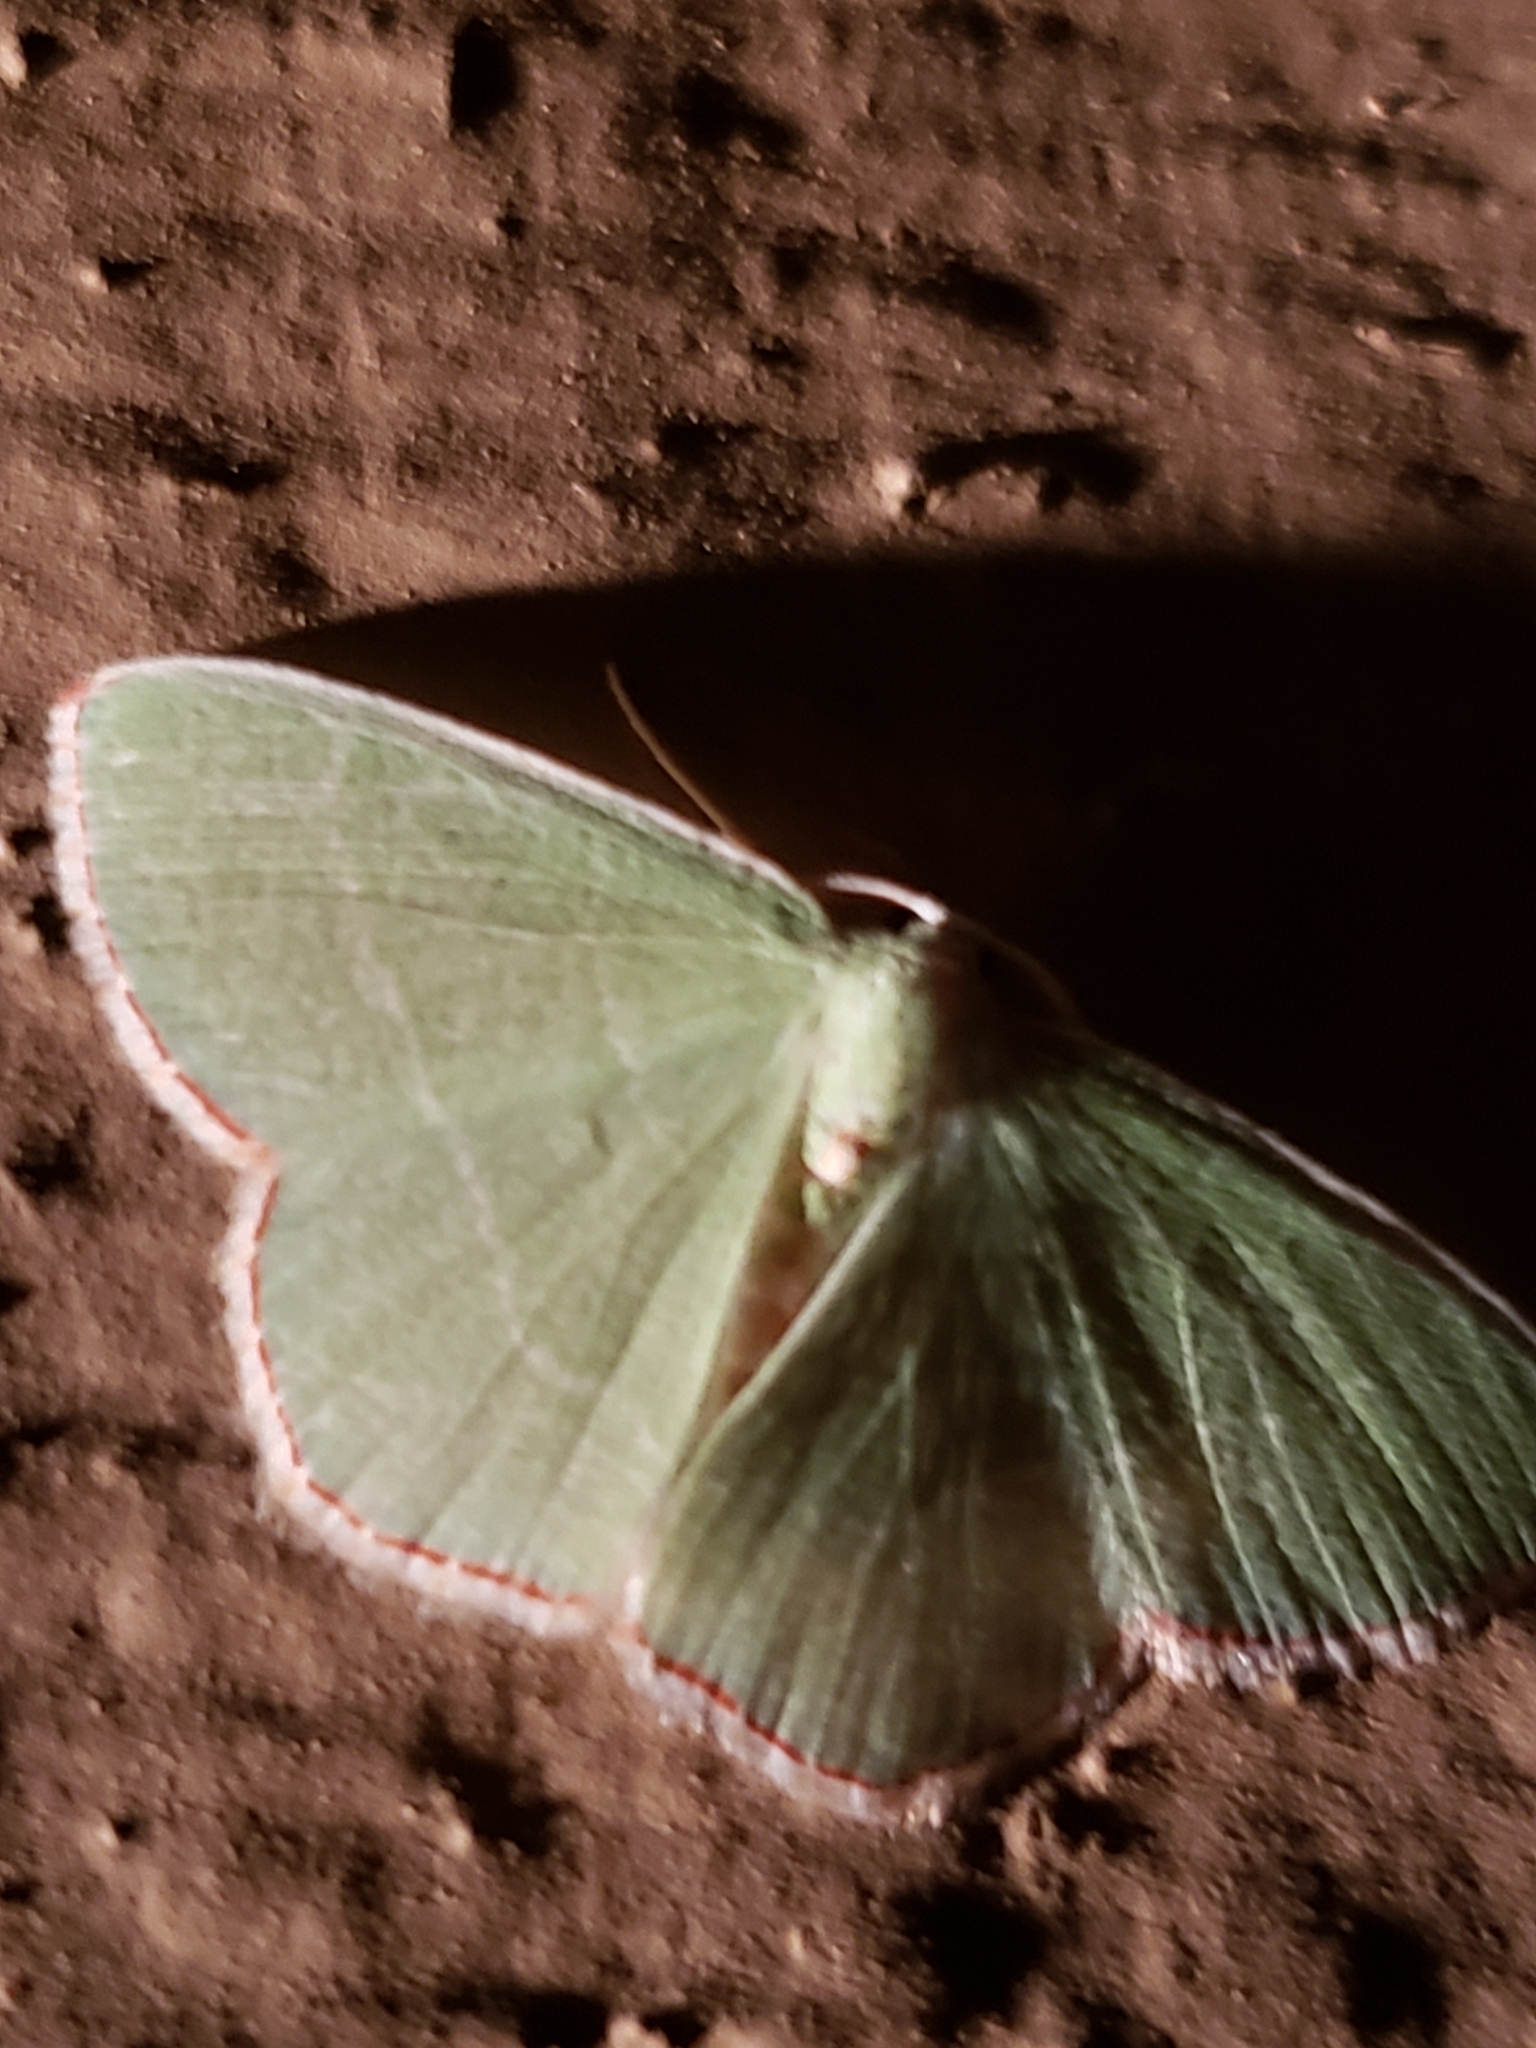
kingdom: Animalia
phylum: Arthropoda
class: Insecta
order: Lepidoptera
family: Geometridae
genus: Nemoria
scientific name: Nemoria bistriaria
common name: Red-fringed emerald
